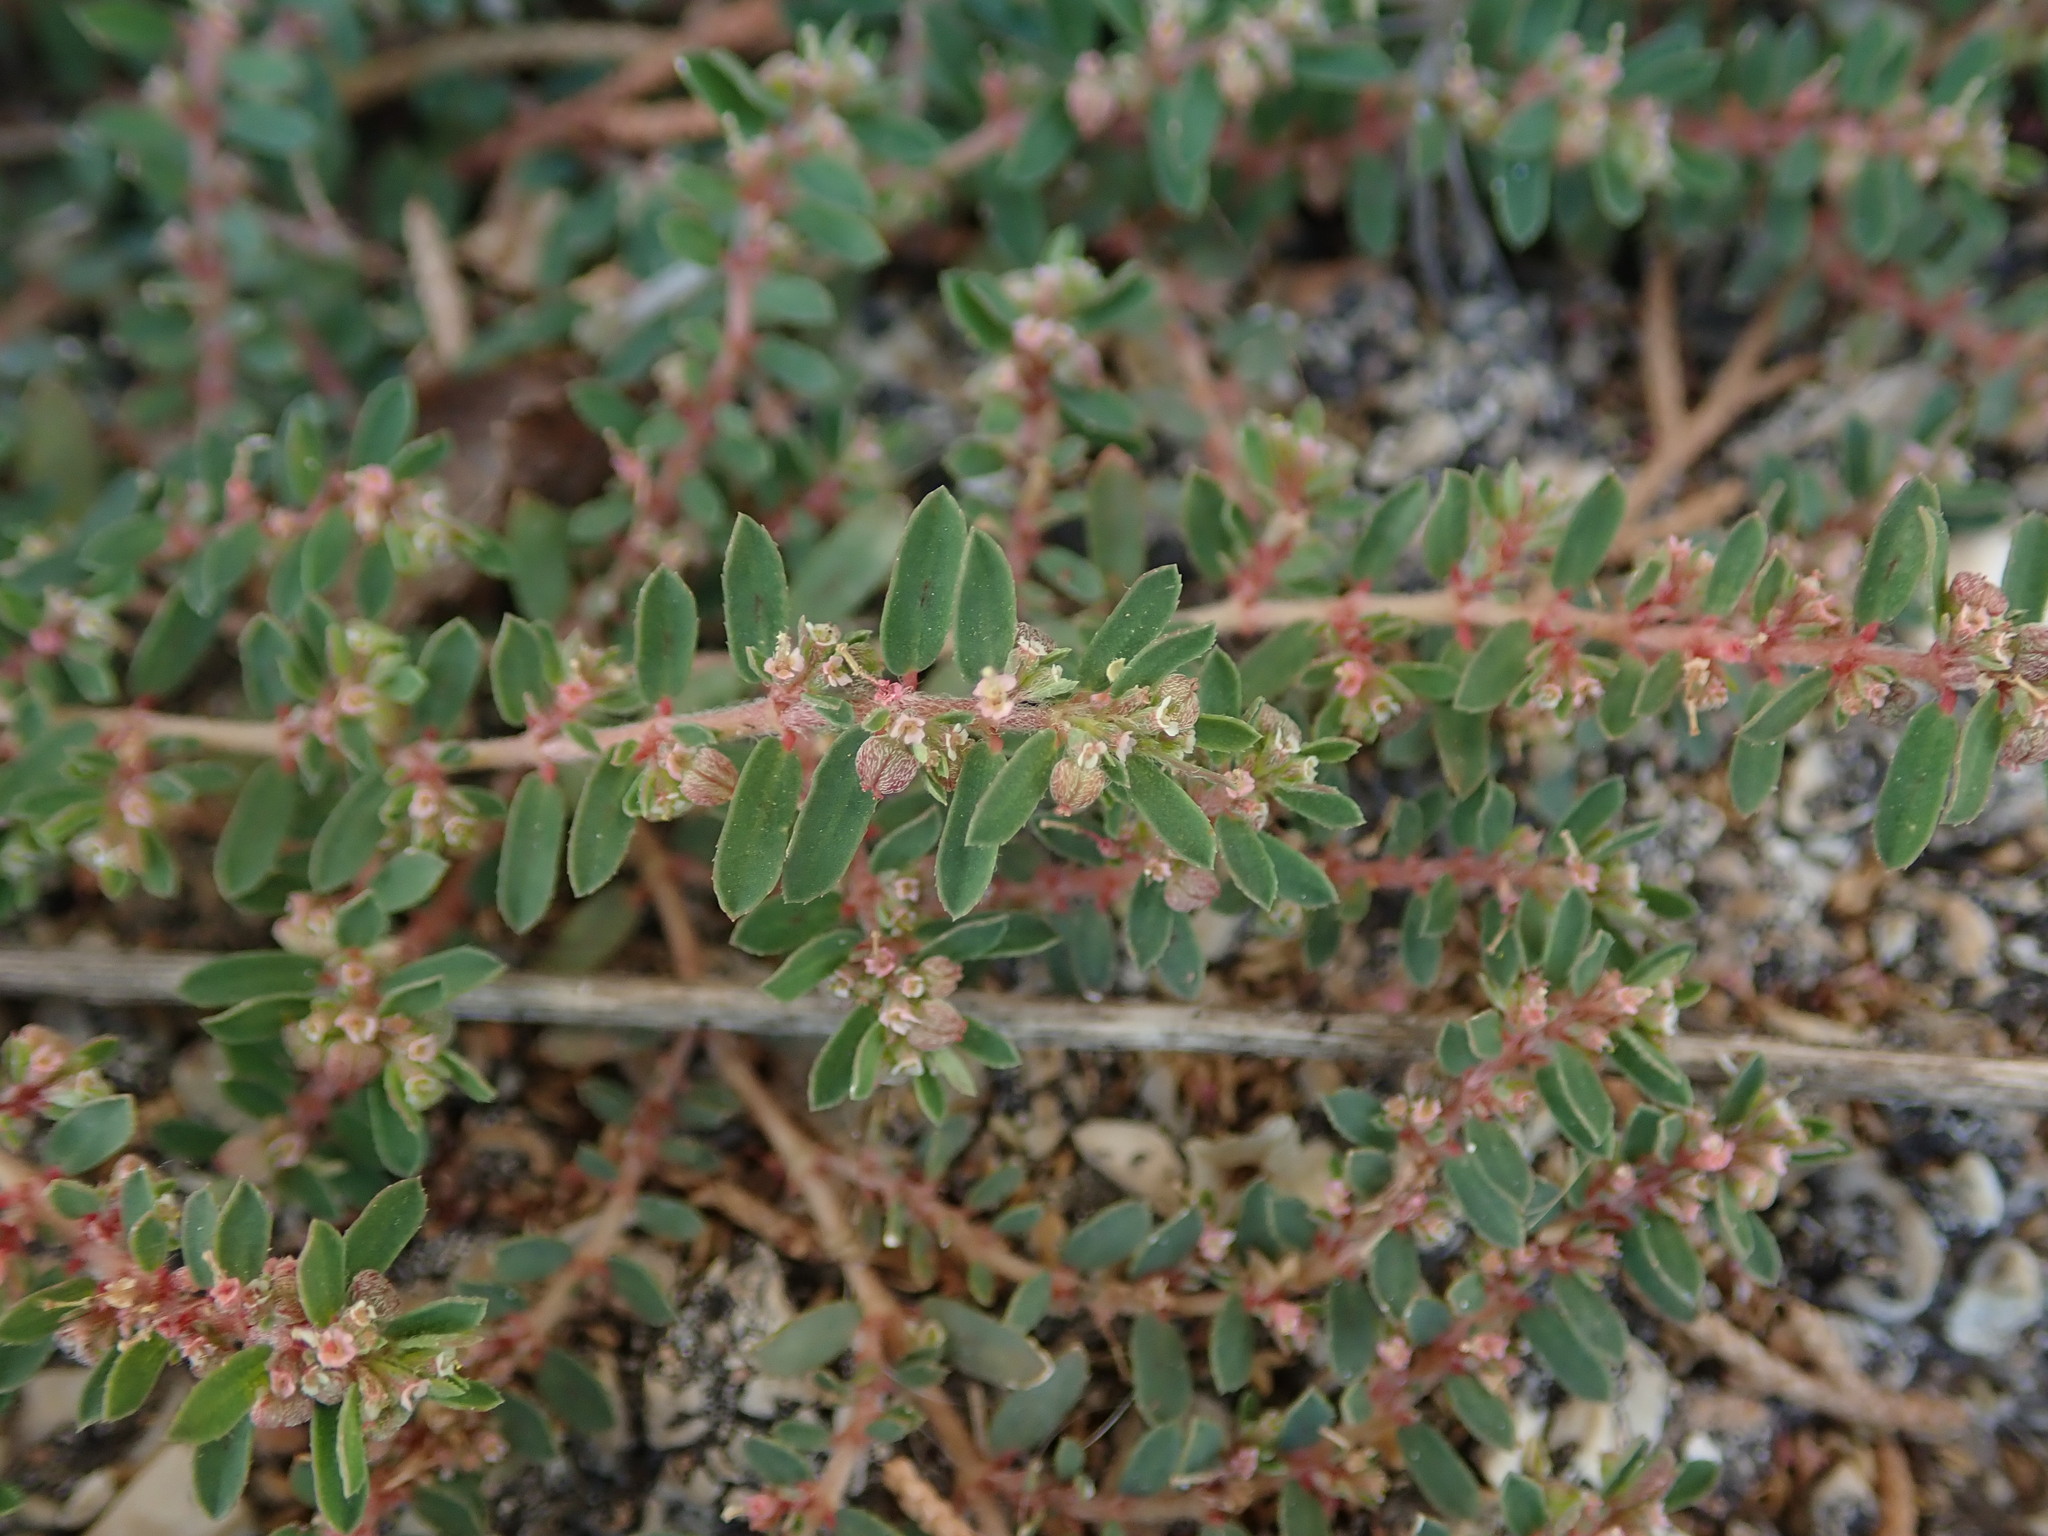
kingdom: Plantae
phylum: Tracheophyta
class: Magnoliopsida
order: Malpighiales
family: Euphorbiaceae
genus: Euphorbia
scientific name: Euphorbia maculata
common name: Spotted spurge
